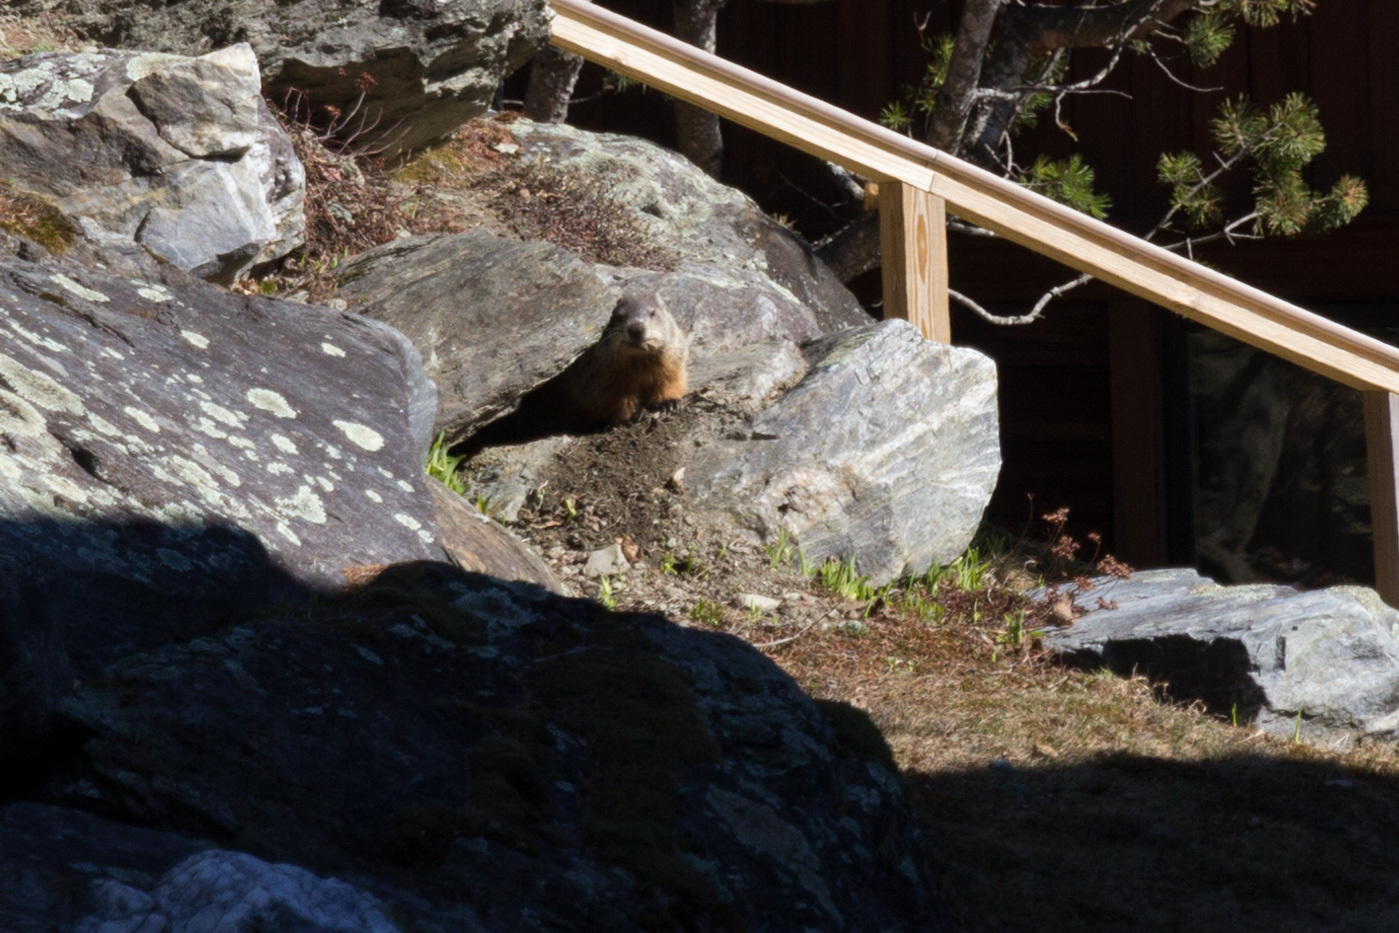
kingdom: Animalia
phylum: Chordata
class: Mammalia
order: Rodentia
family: Sciuridae
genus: Marmota
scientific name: Marmota monax
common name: Groundhog
